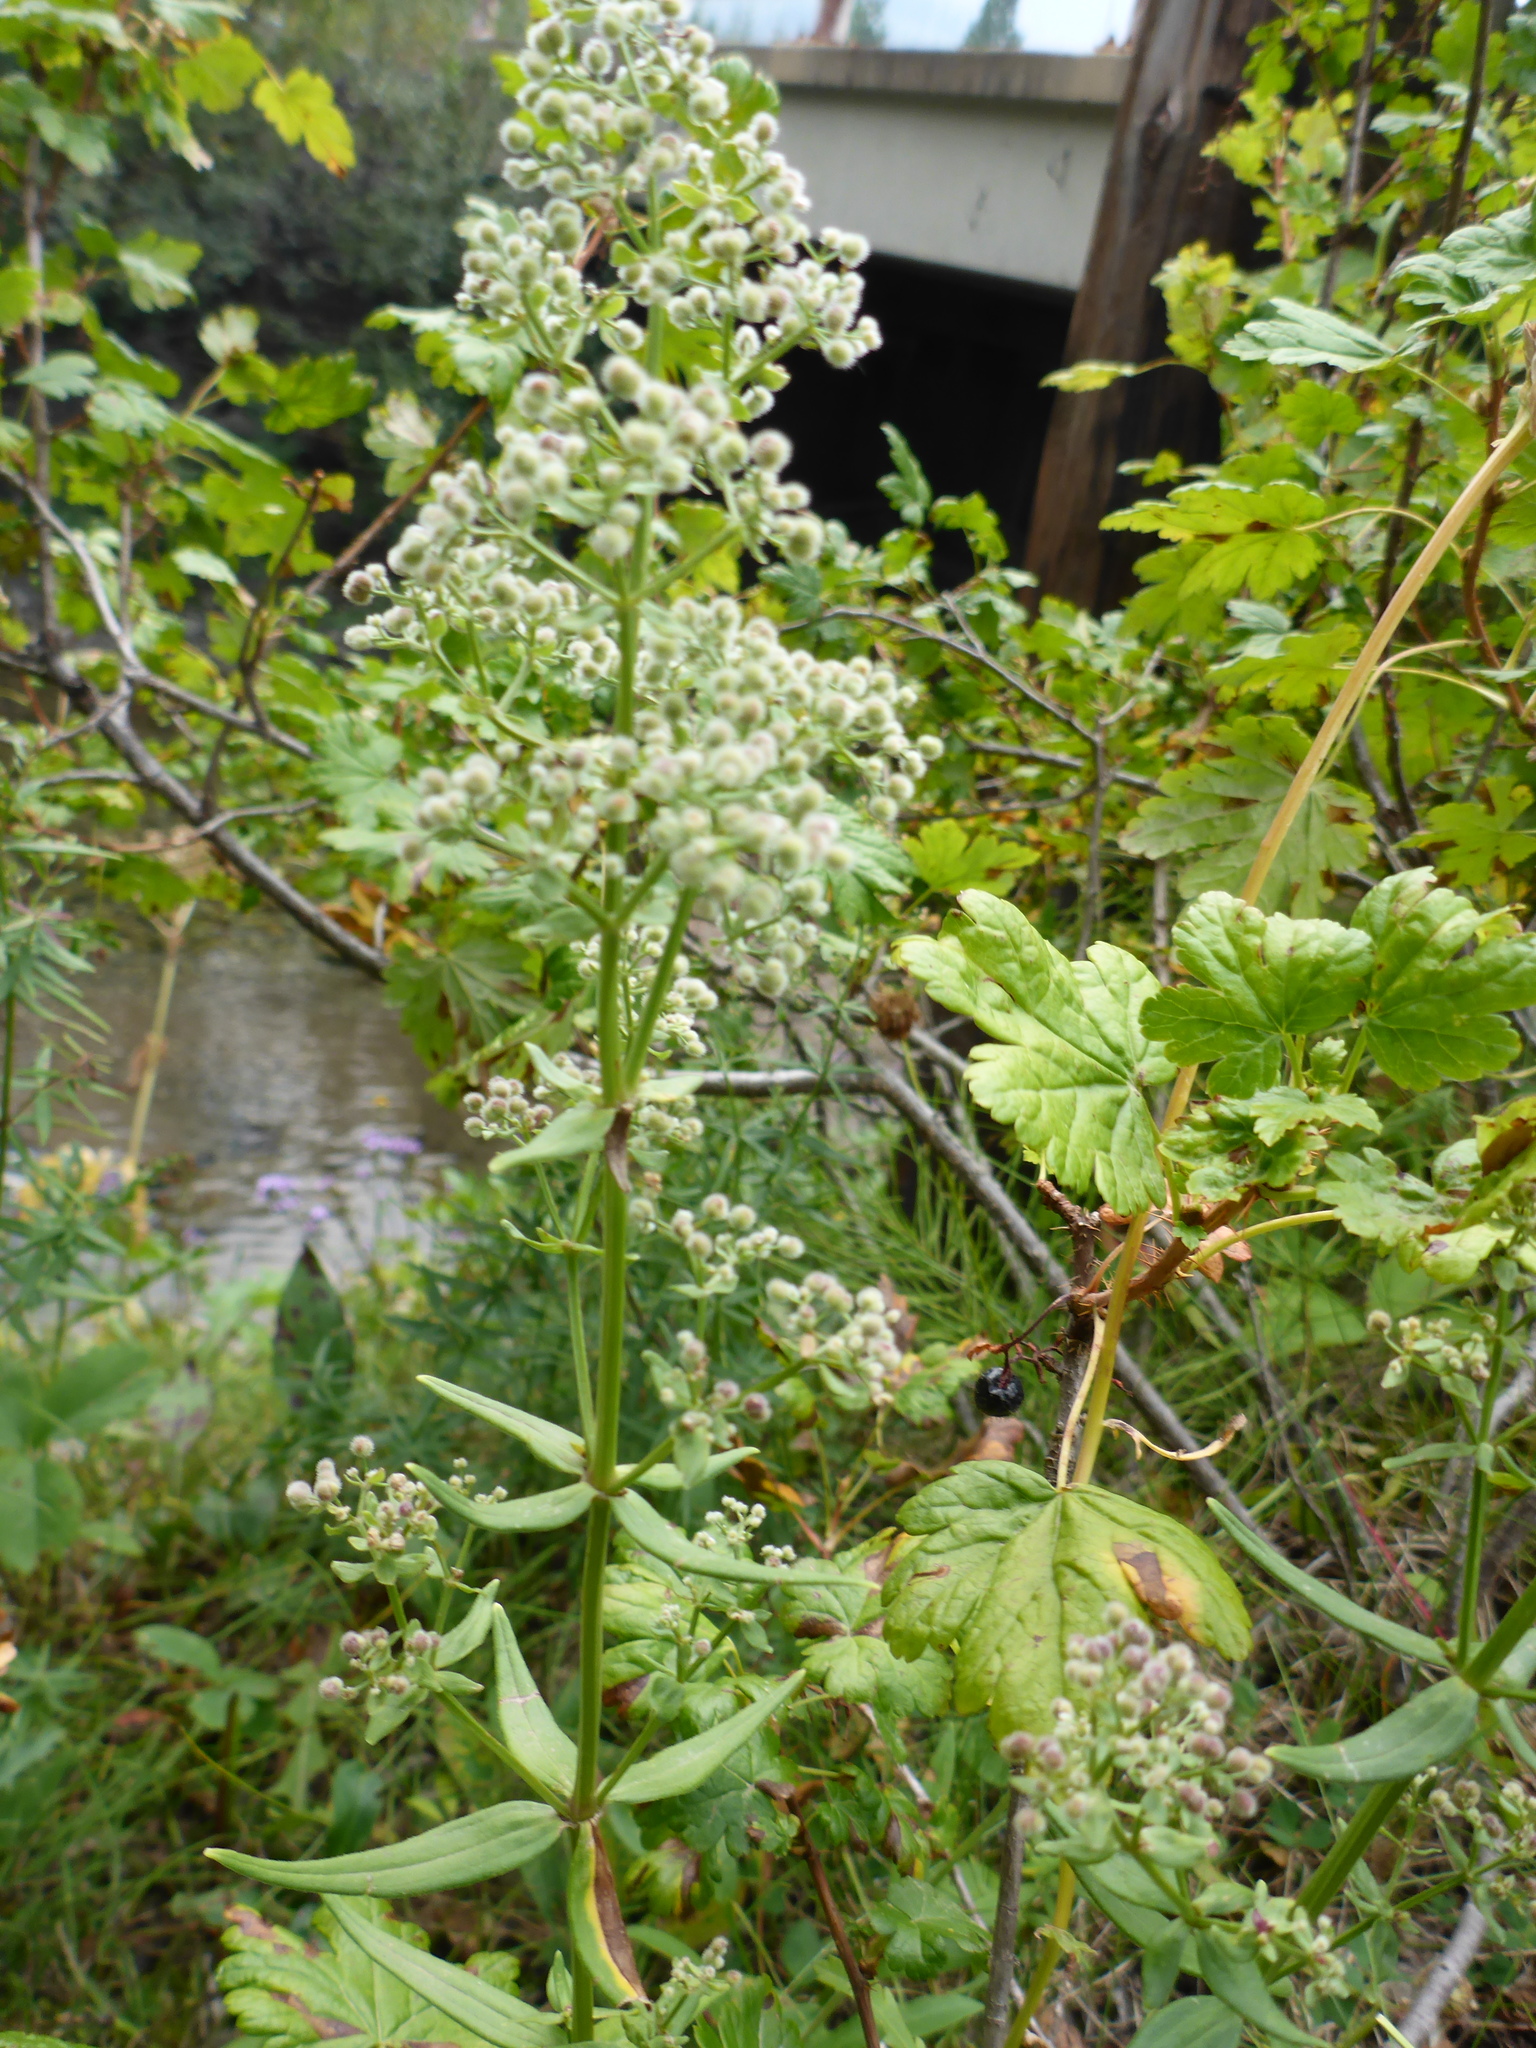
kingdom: Plantae
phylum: Tracheophyta
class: Magnoliopsida
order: Gentianales
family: Rubiaceae
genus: Galium
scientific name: Galium boreale
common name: Northern bedstraw
